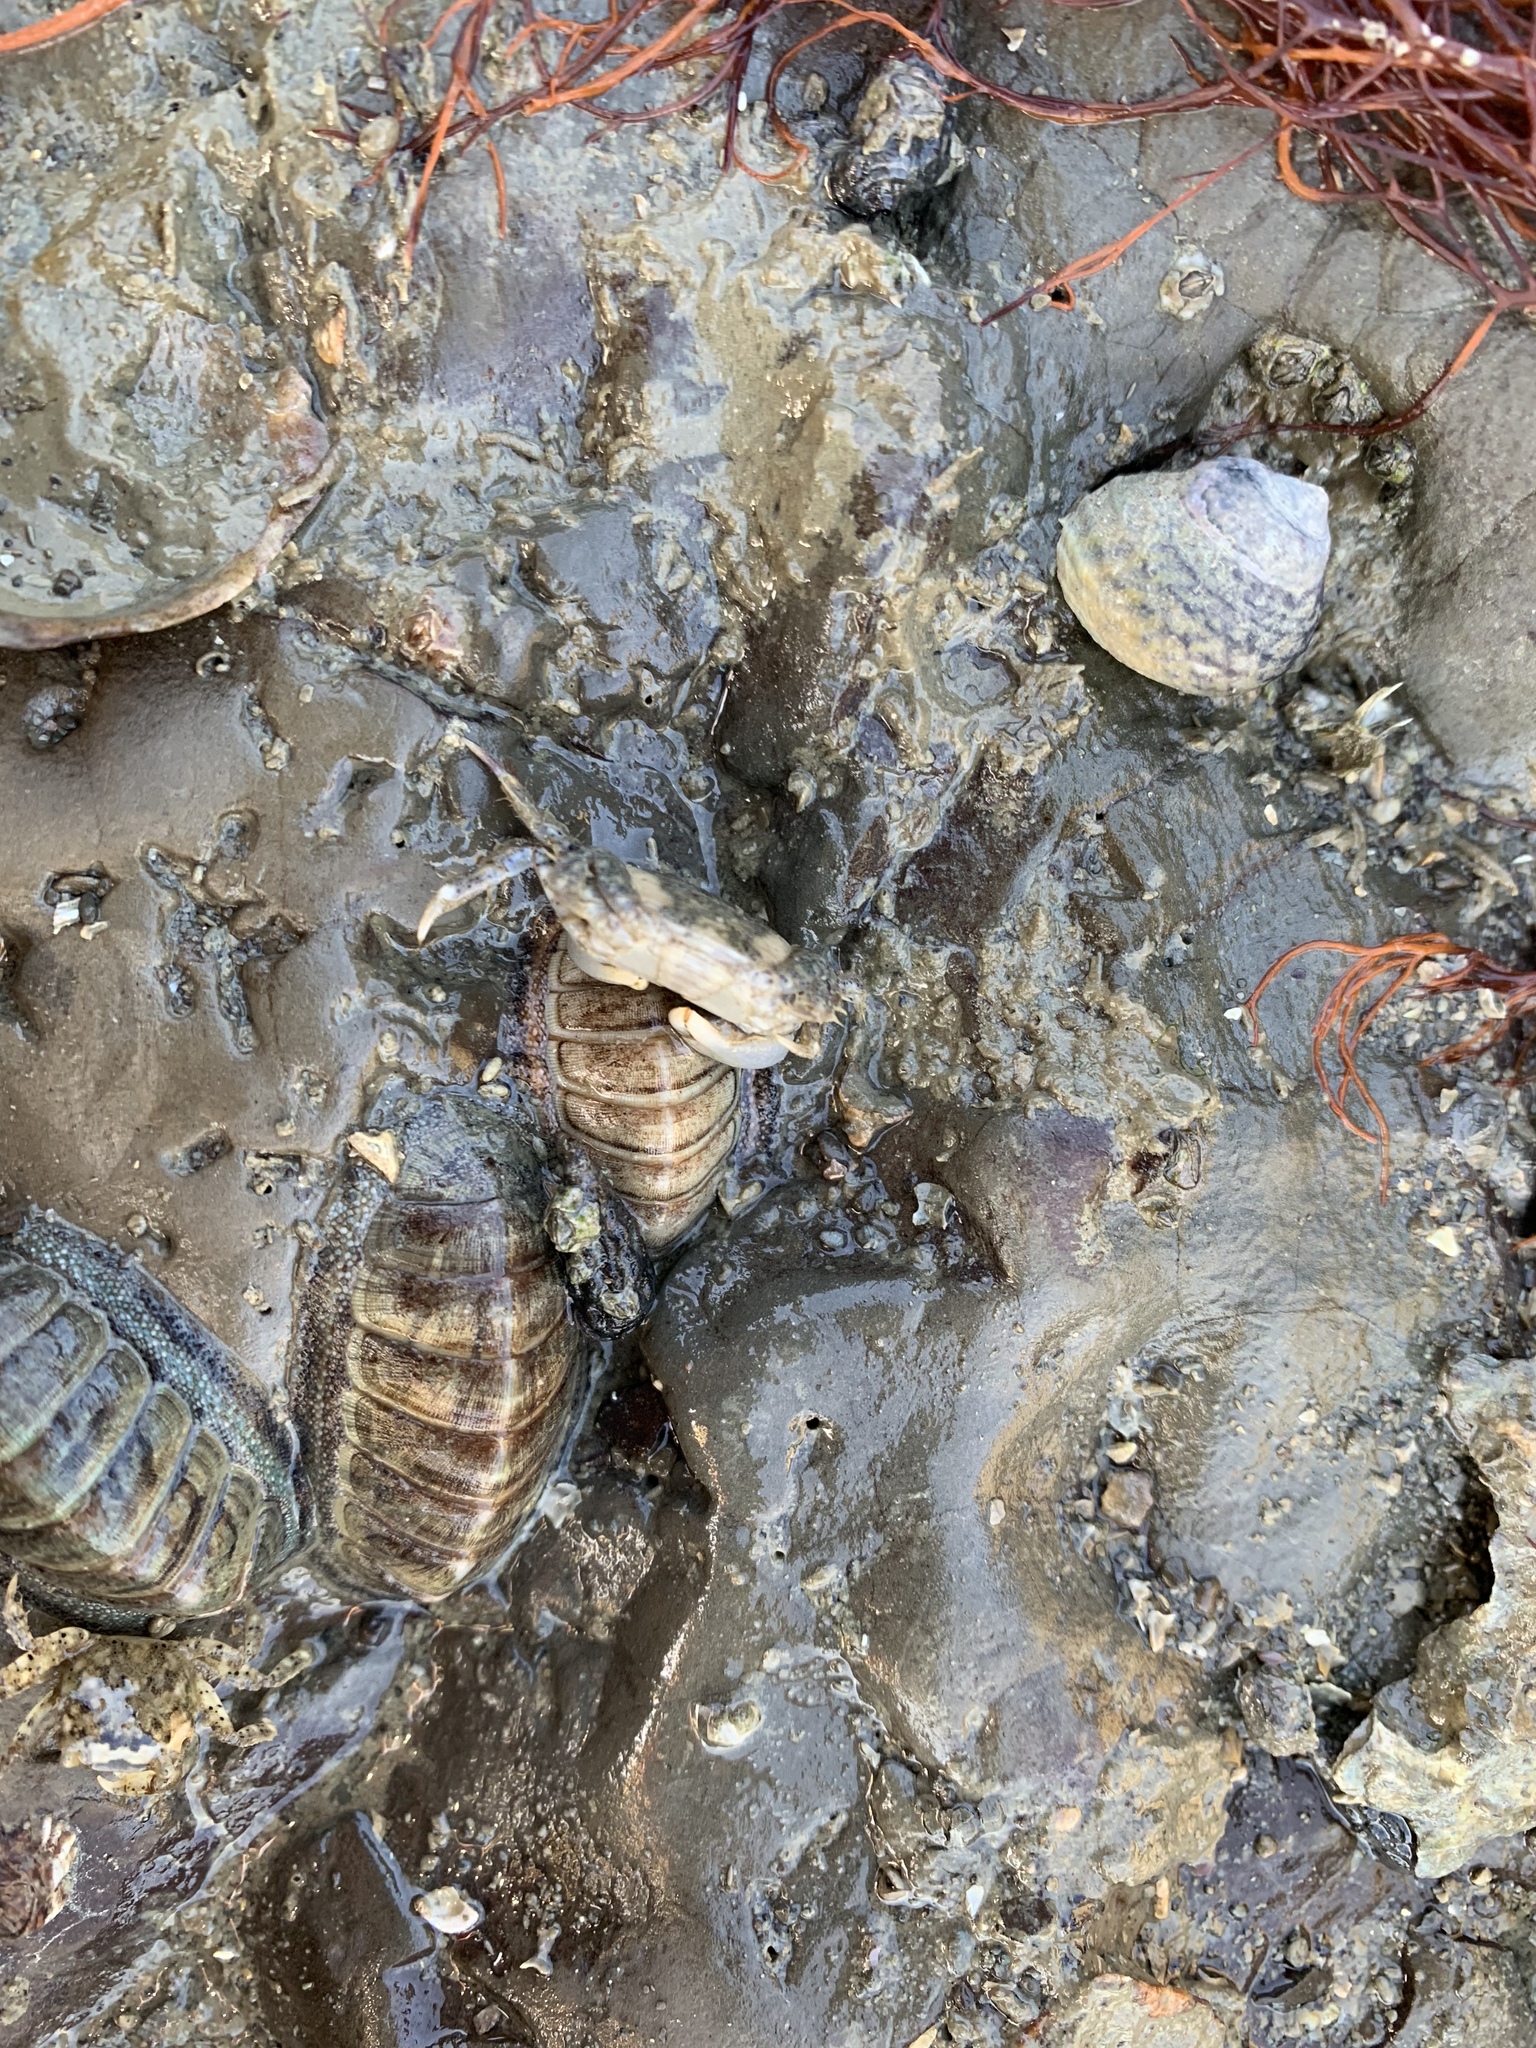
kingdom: Animalia
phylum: Mollusca
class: Polyplacophora
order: Chitonida
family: Ischnochitonidae
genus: Ischnochiton
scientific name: Ischnochiton maorianus
